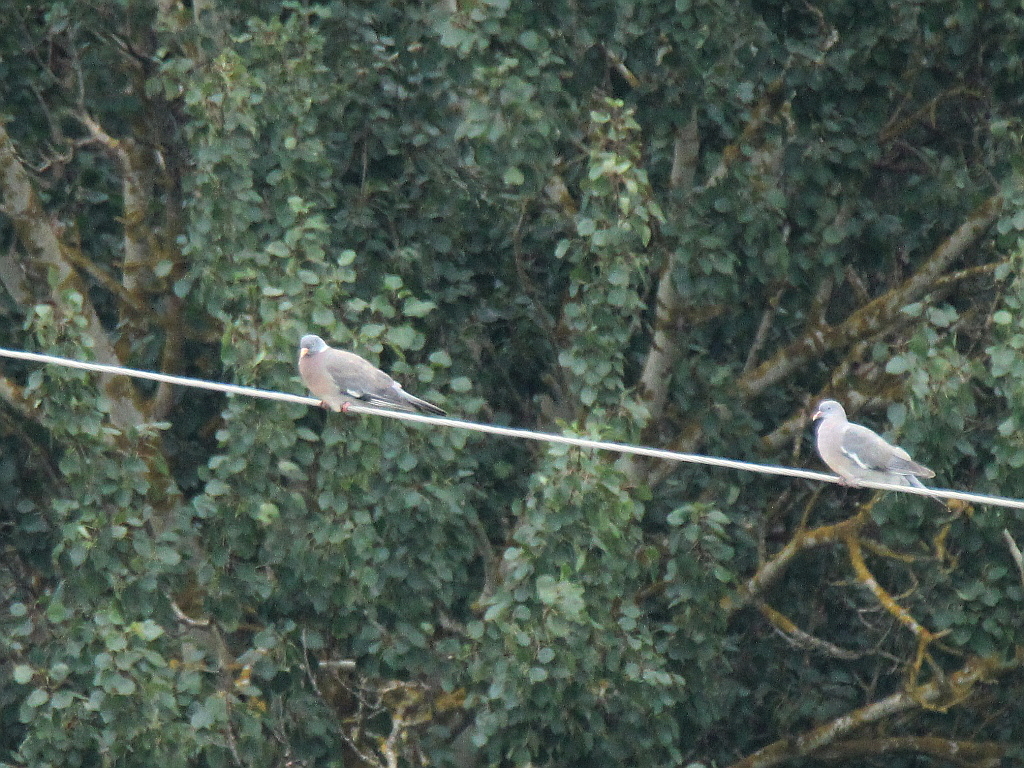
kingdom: Animalia
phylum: Chordata
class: Aves
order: Columbiformes
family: Columbidae
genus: Columba
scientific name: Columba palumbus
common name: Common wood pigeon
